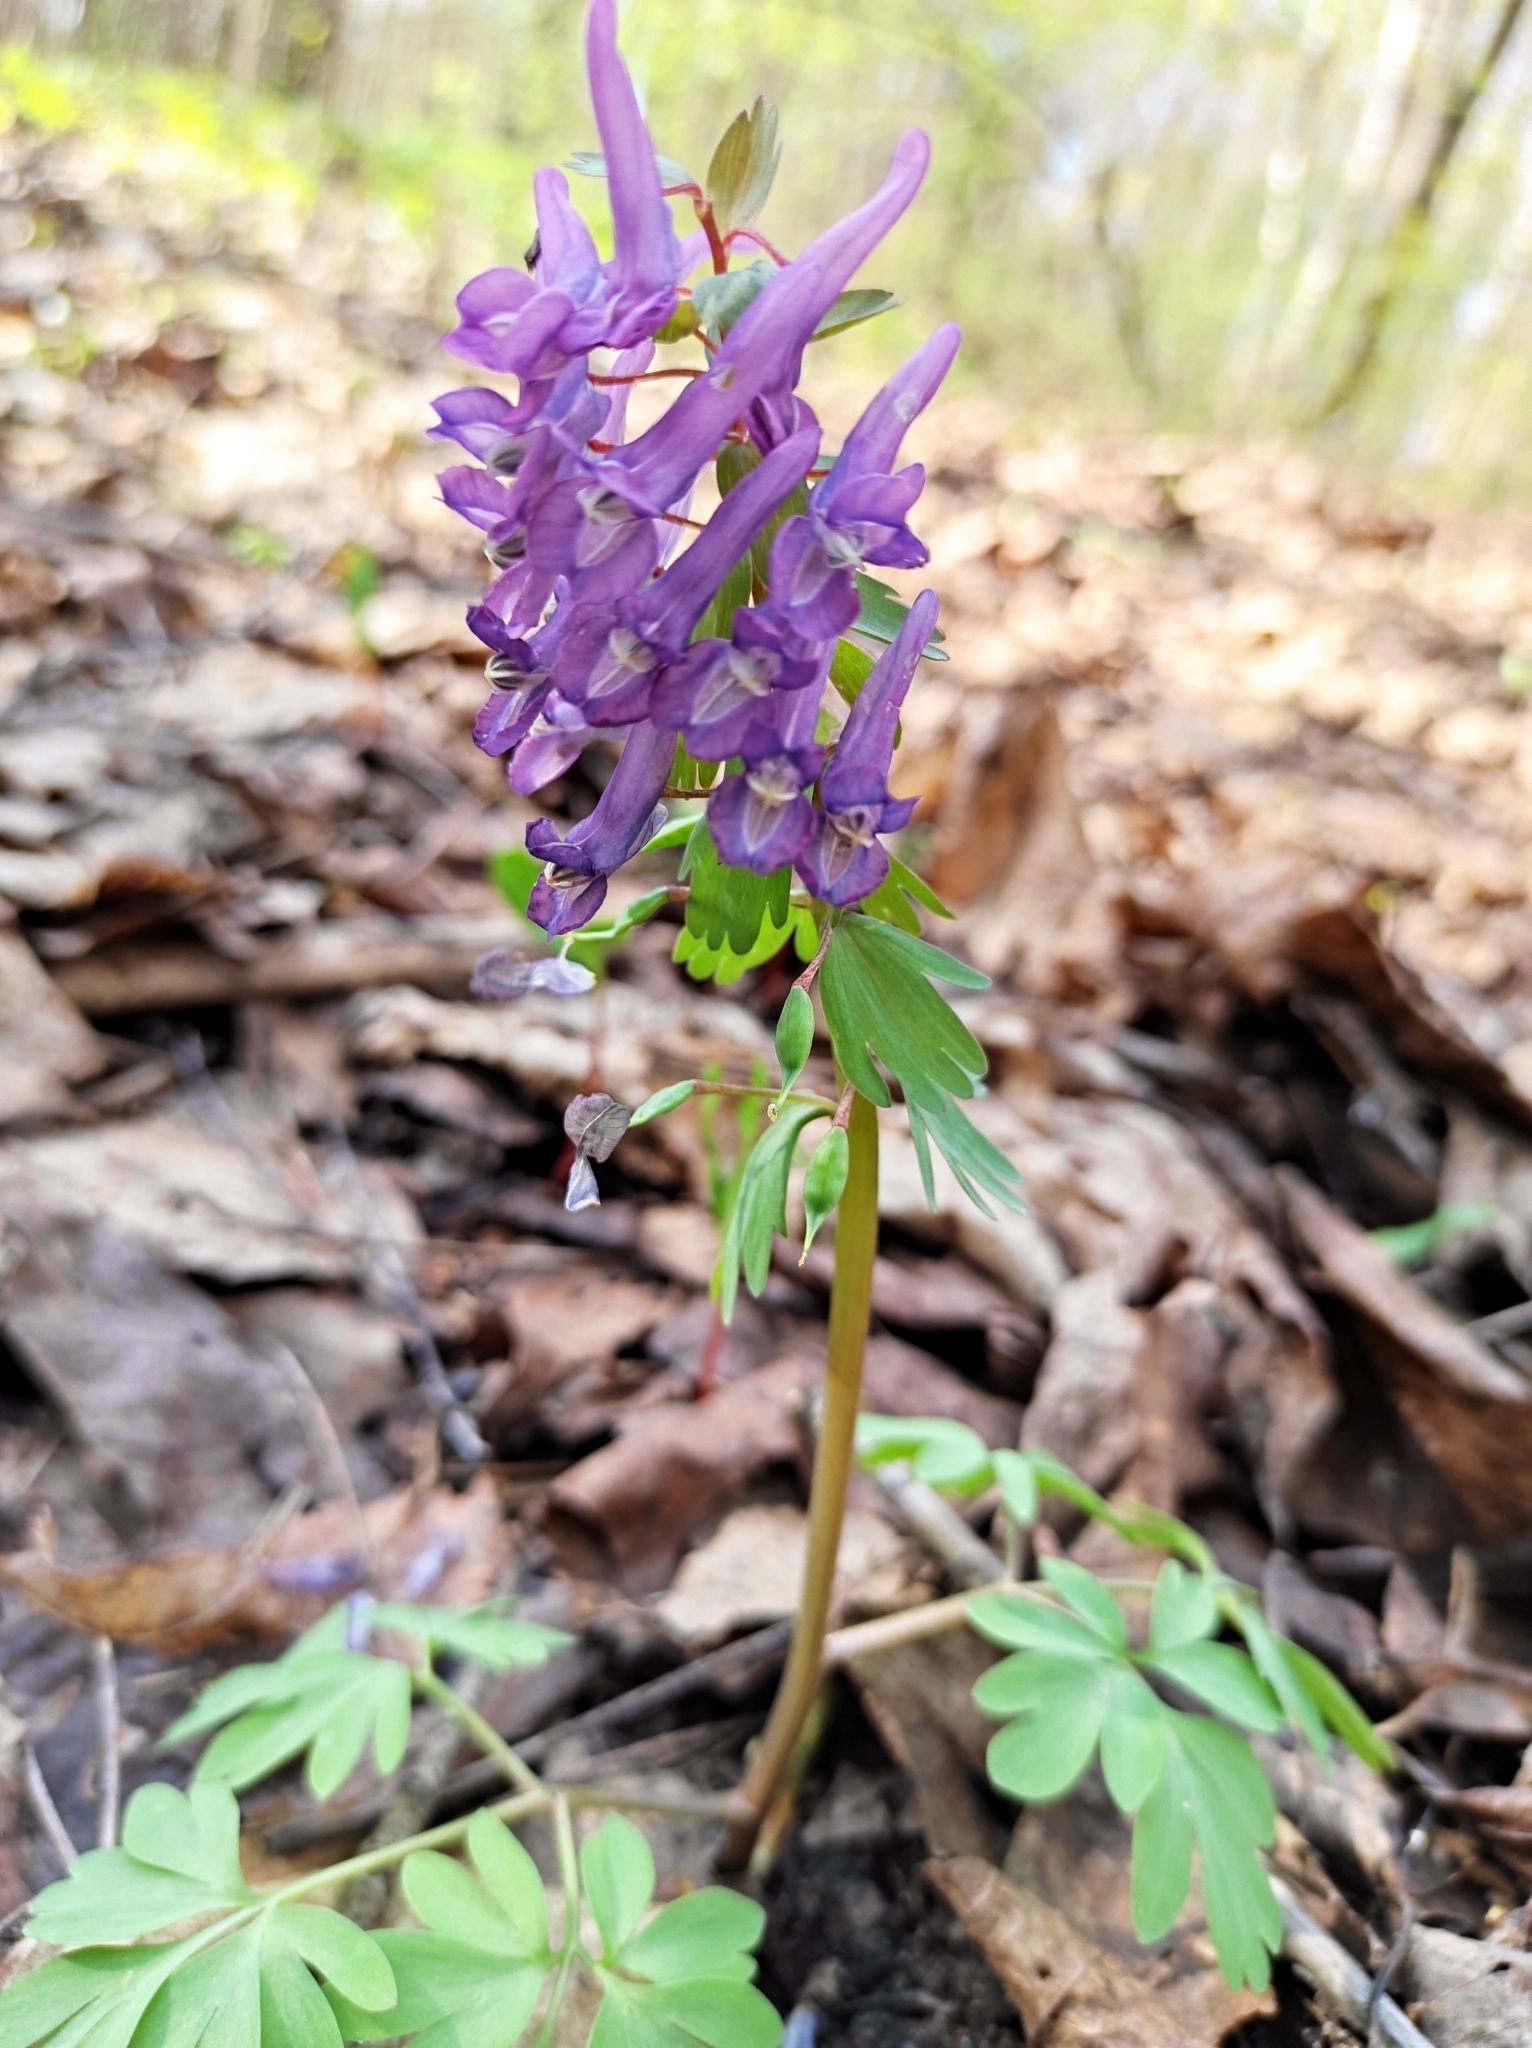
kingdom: Plantae
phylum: Tracheophyta
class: Magnoliopsida
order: Ranunculales
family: Papaveraceae
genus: Corydalis
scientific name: Corydalis solida
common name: Bird-in-a-bush
